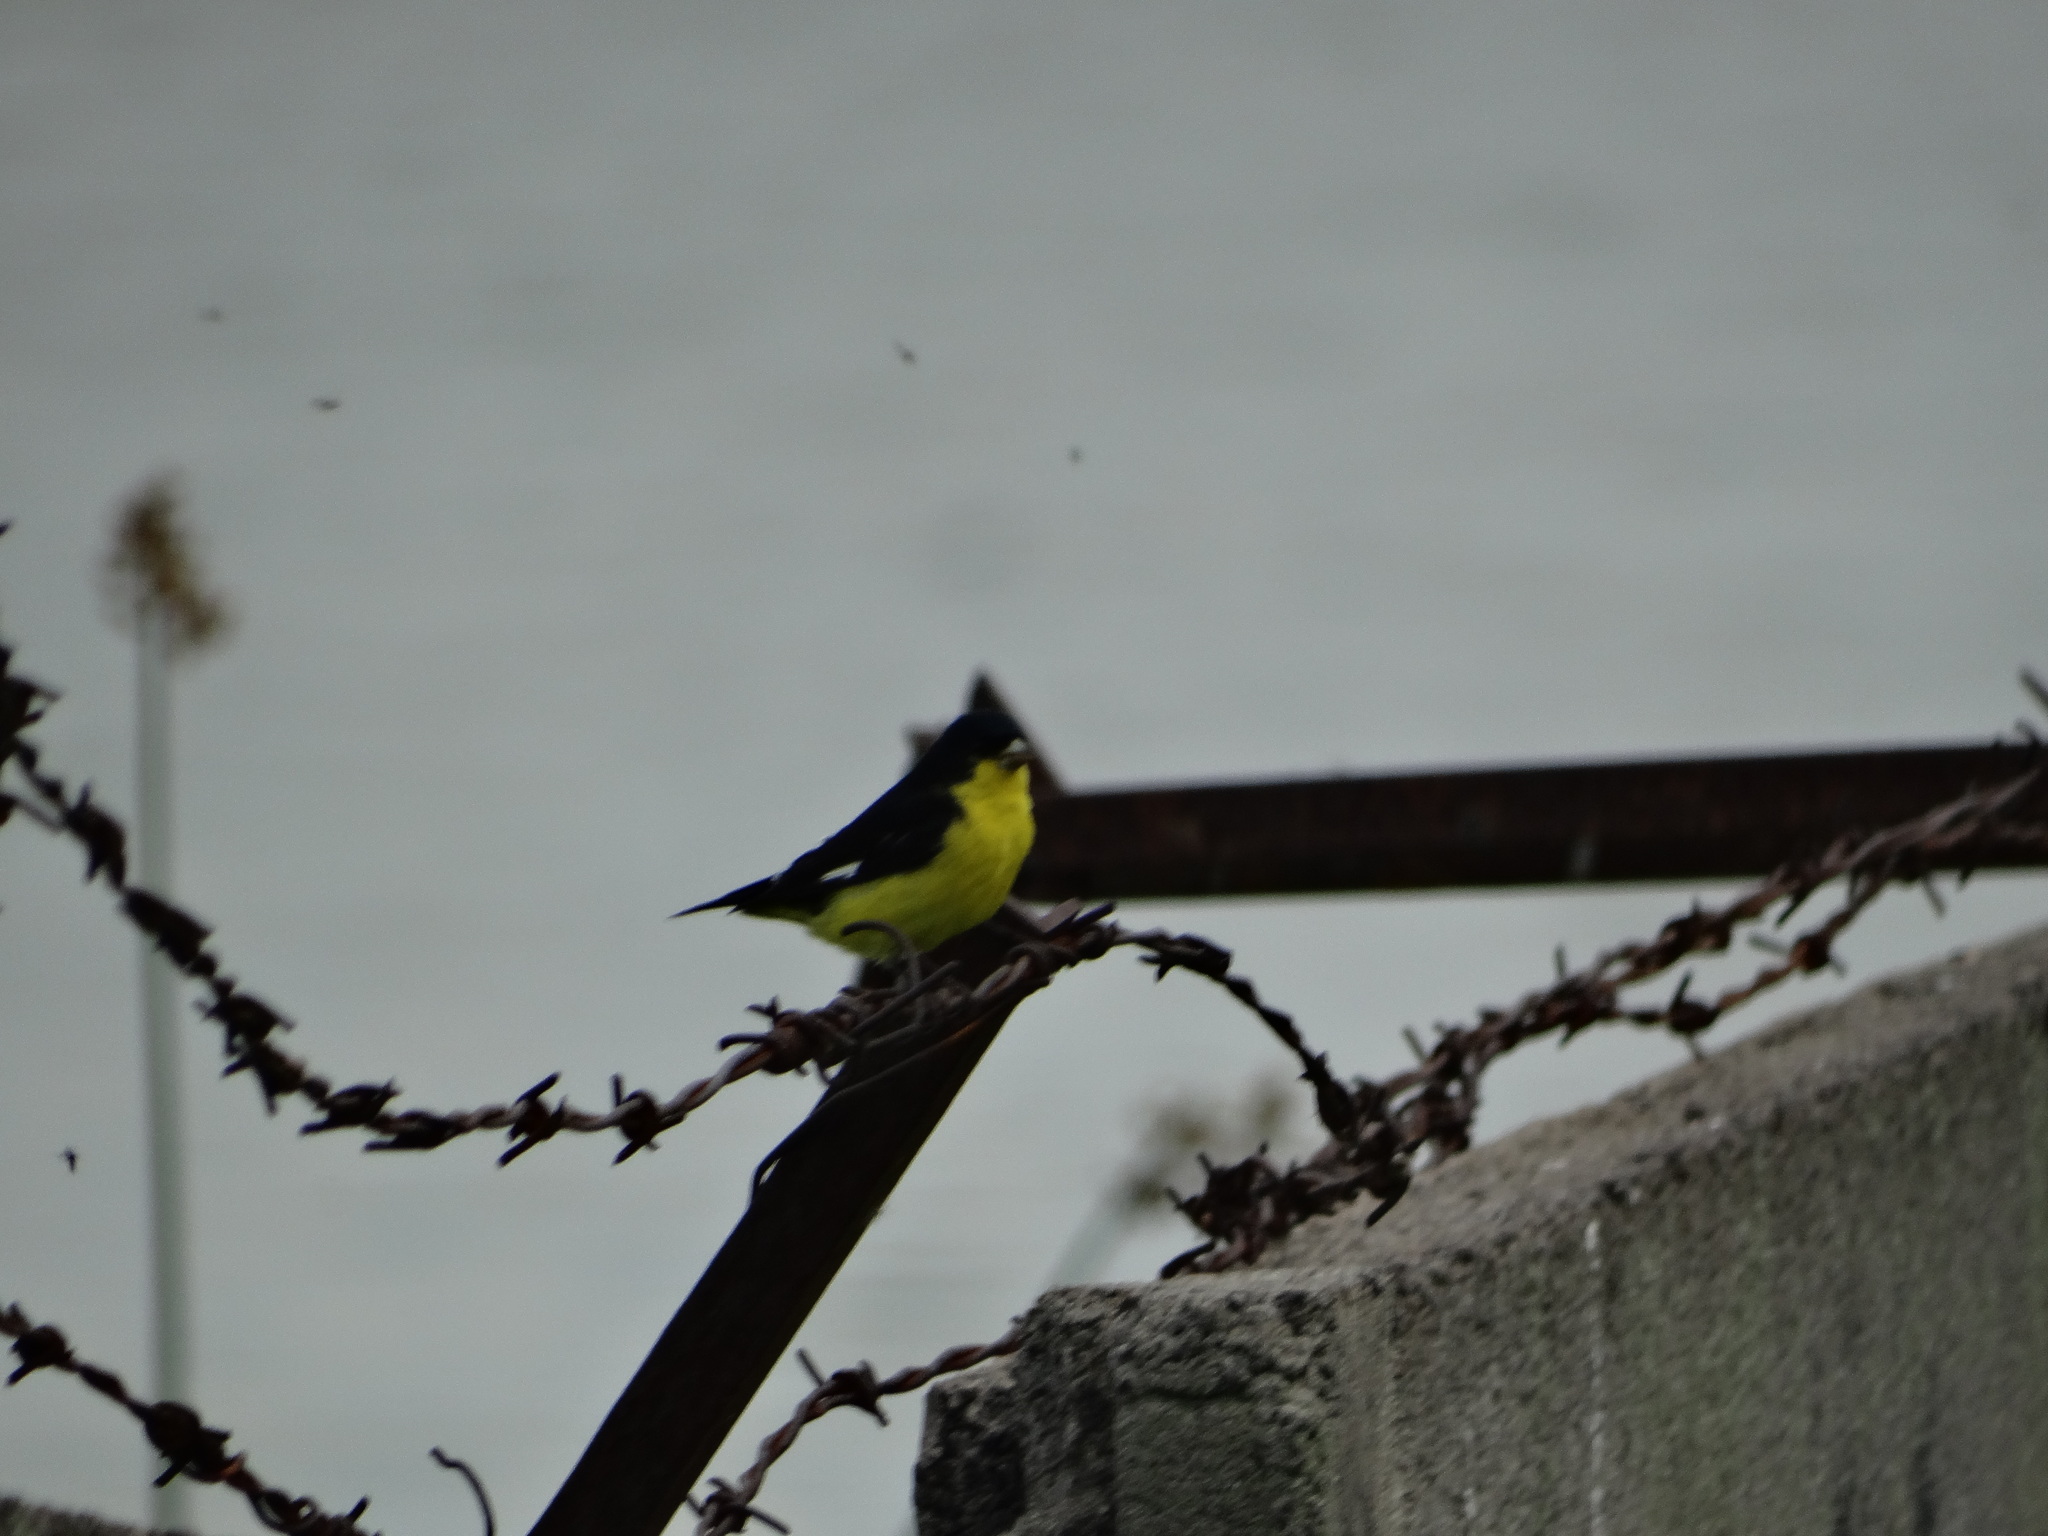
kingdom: Animalia
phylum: Chordata
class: Aves
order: Passeriformes
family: Fringillidae
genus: Spinus
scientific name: Spinus psaltria
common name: Lesser goldfinch
